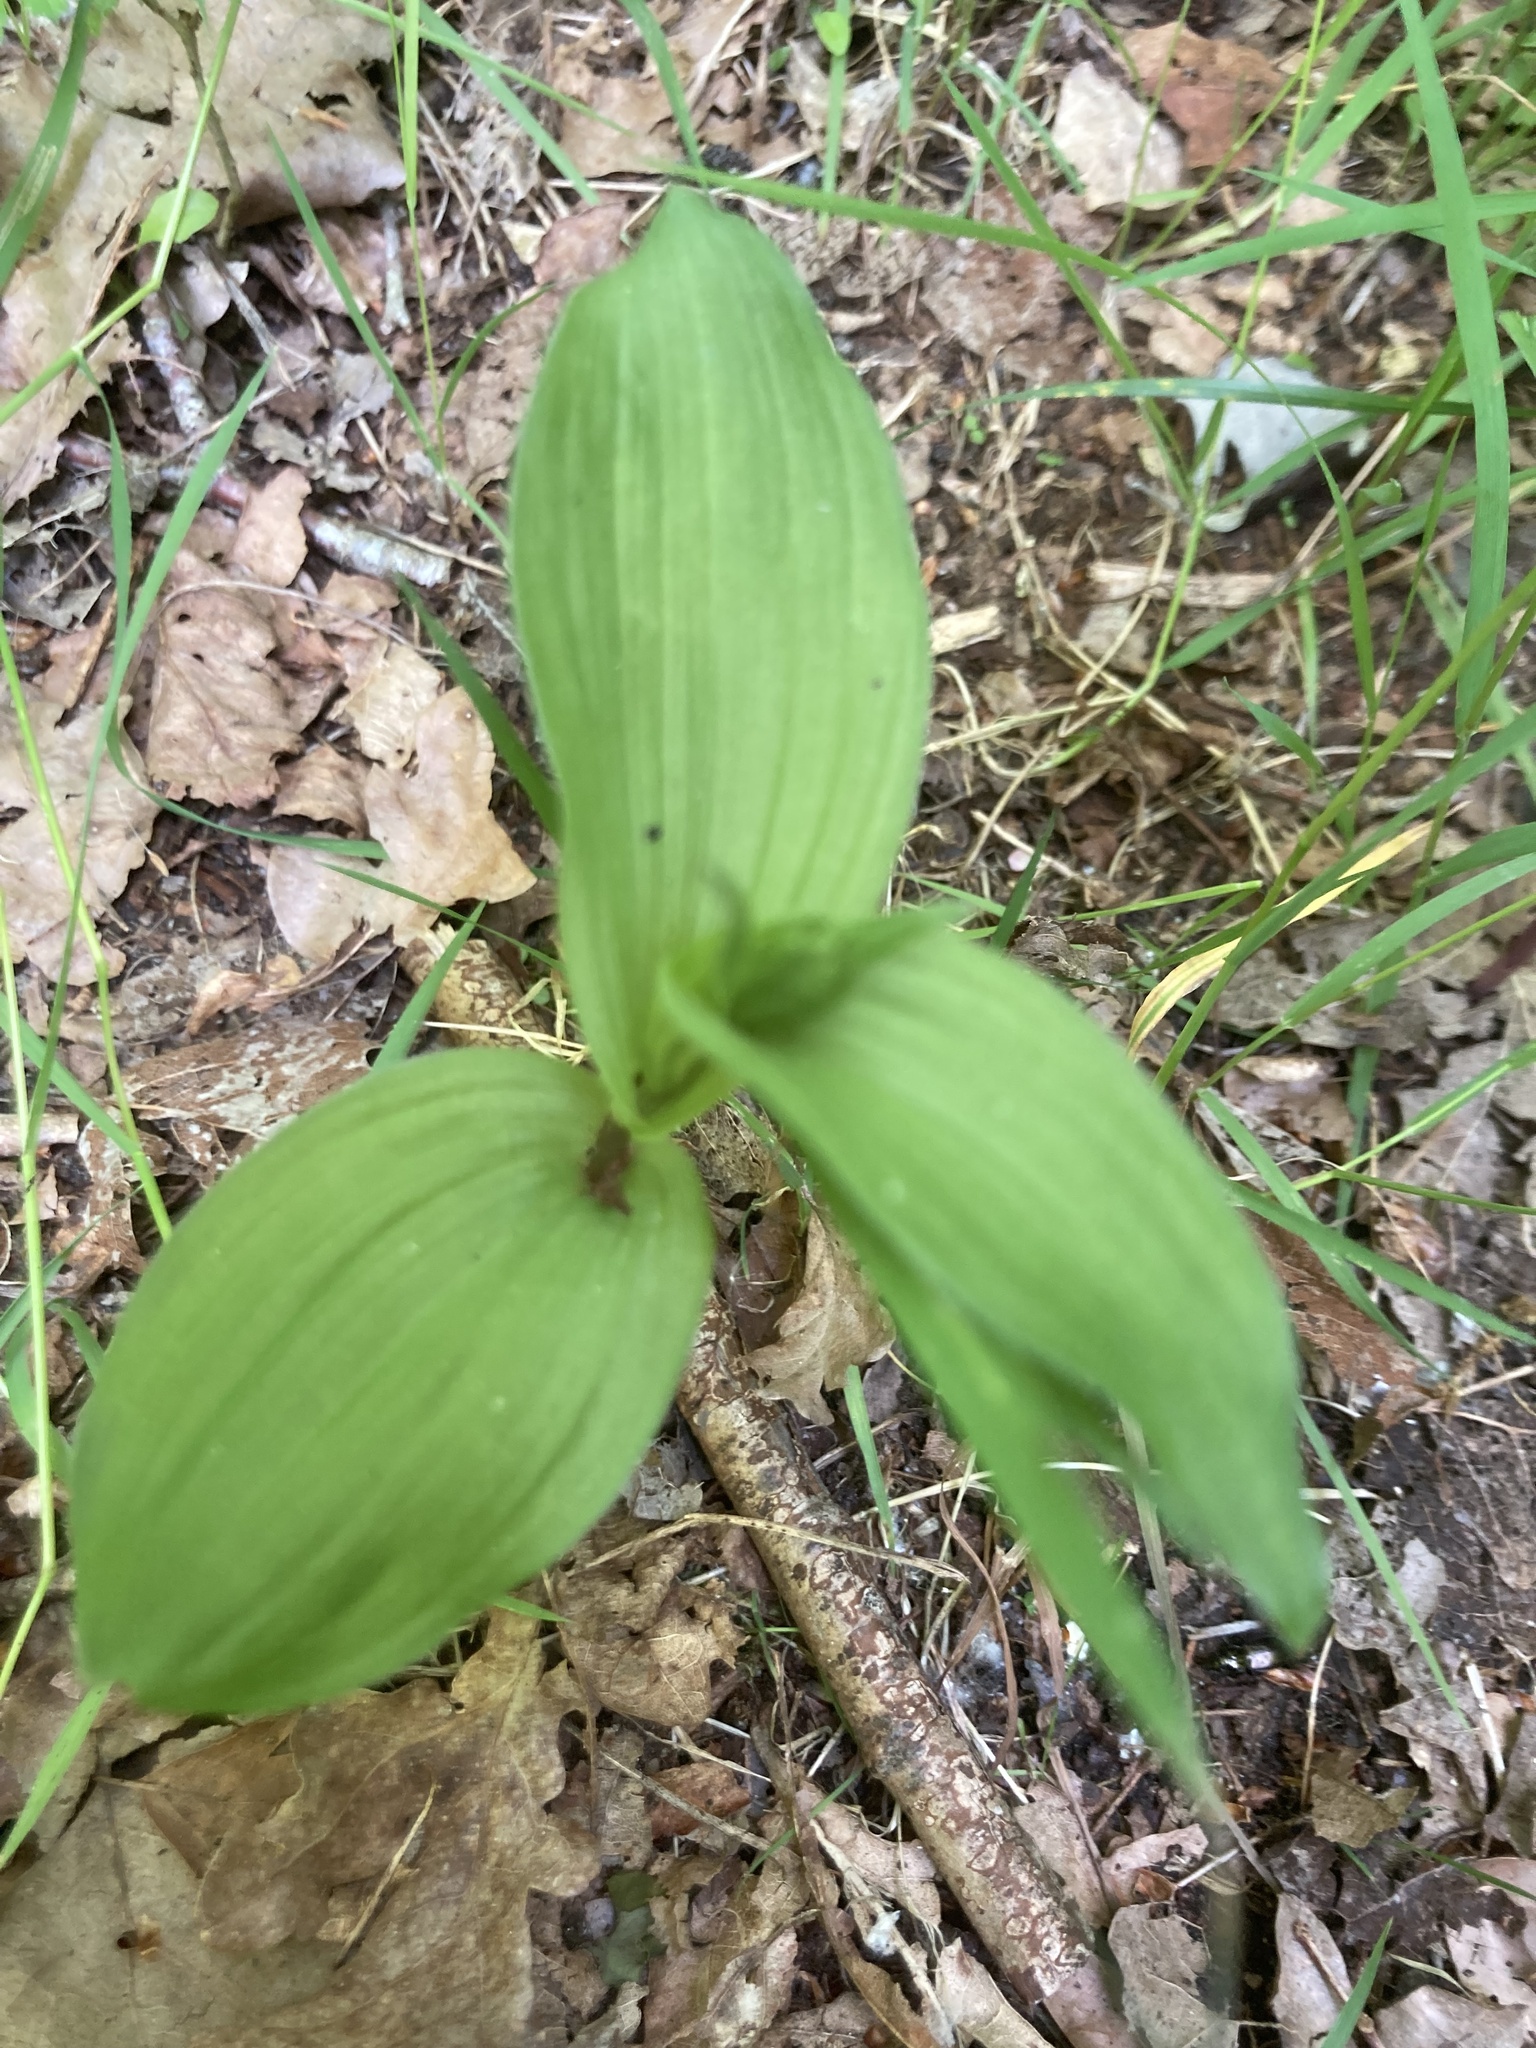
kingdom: Plantae
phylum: Tracheophyta
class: Liliopsida
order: Asparagales
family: Orchidaceae
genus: Epipactis
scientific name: Epipactis helleborine
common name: Broad-leaved helleborine
